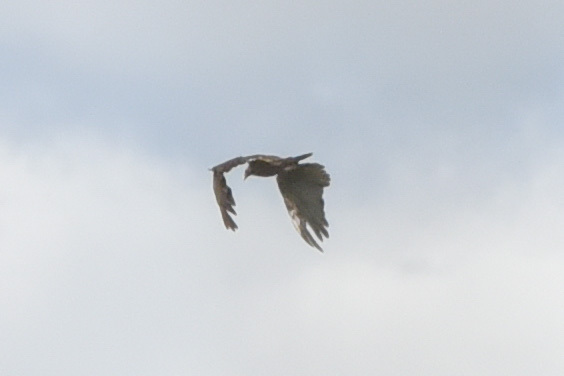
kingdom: Animalia
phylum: Chordata
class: Aves
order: Accipitriformes
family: Cathartidae
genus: Cathartes
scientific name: Cathartes aura
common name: Turkey vulture
